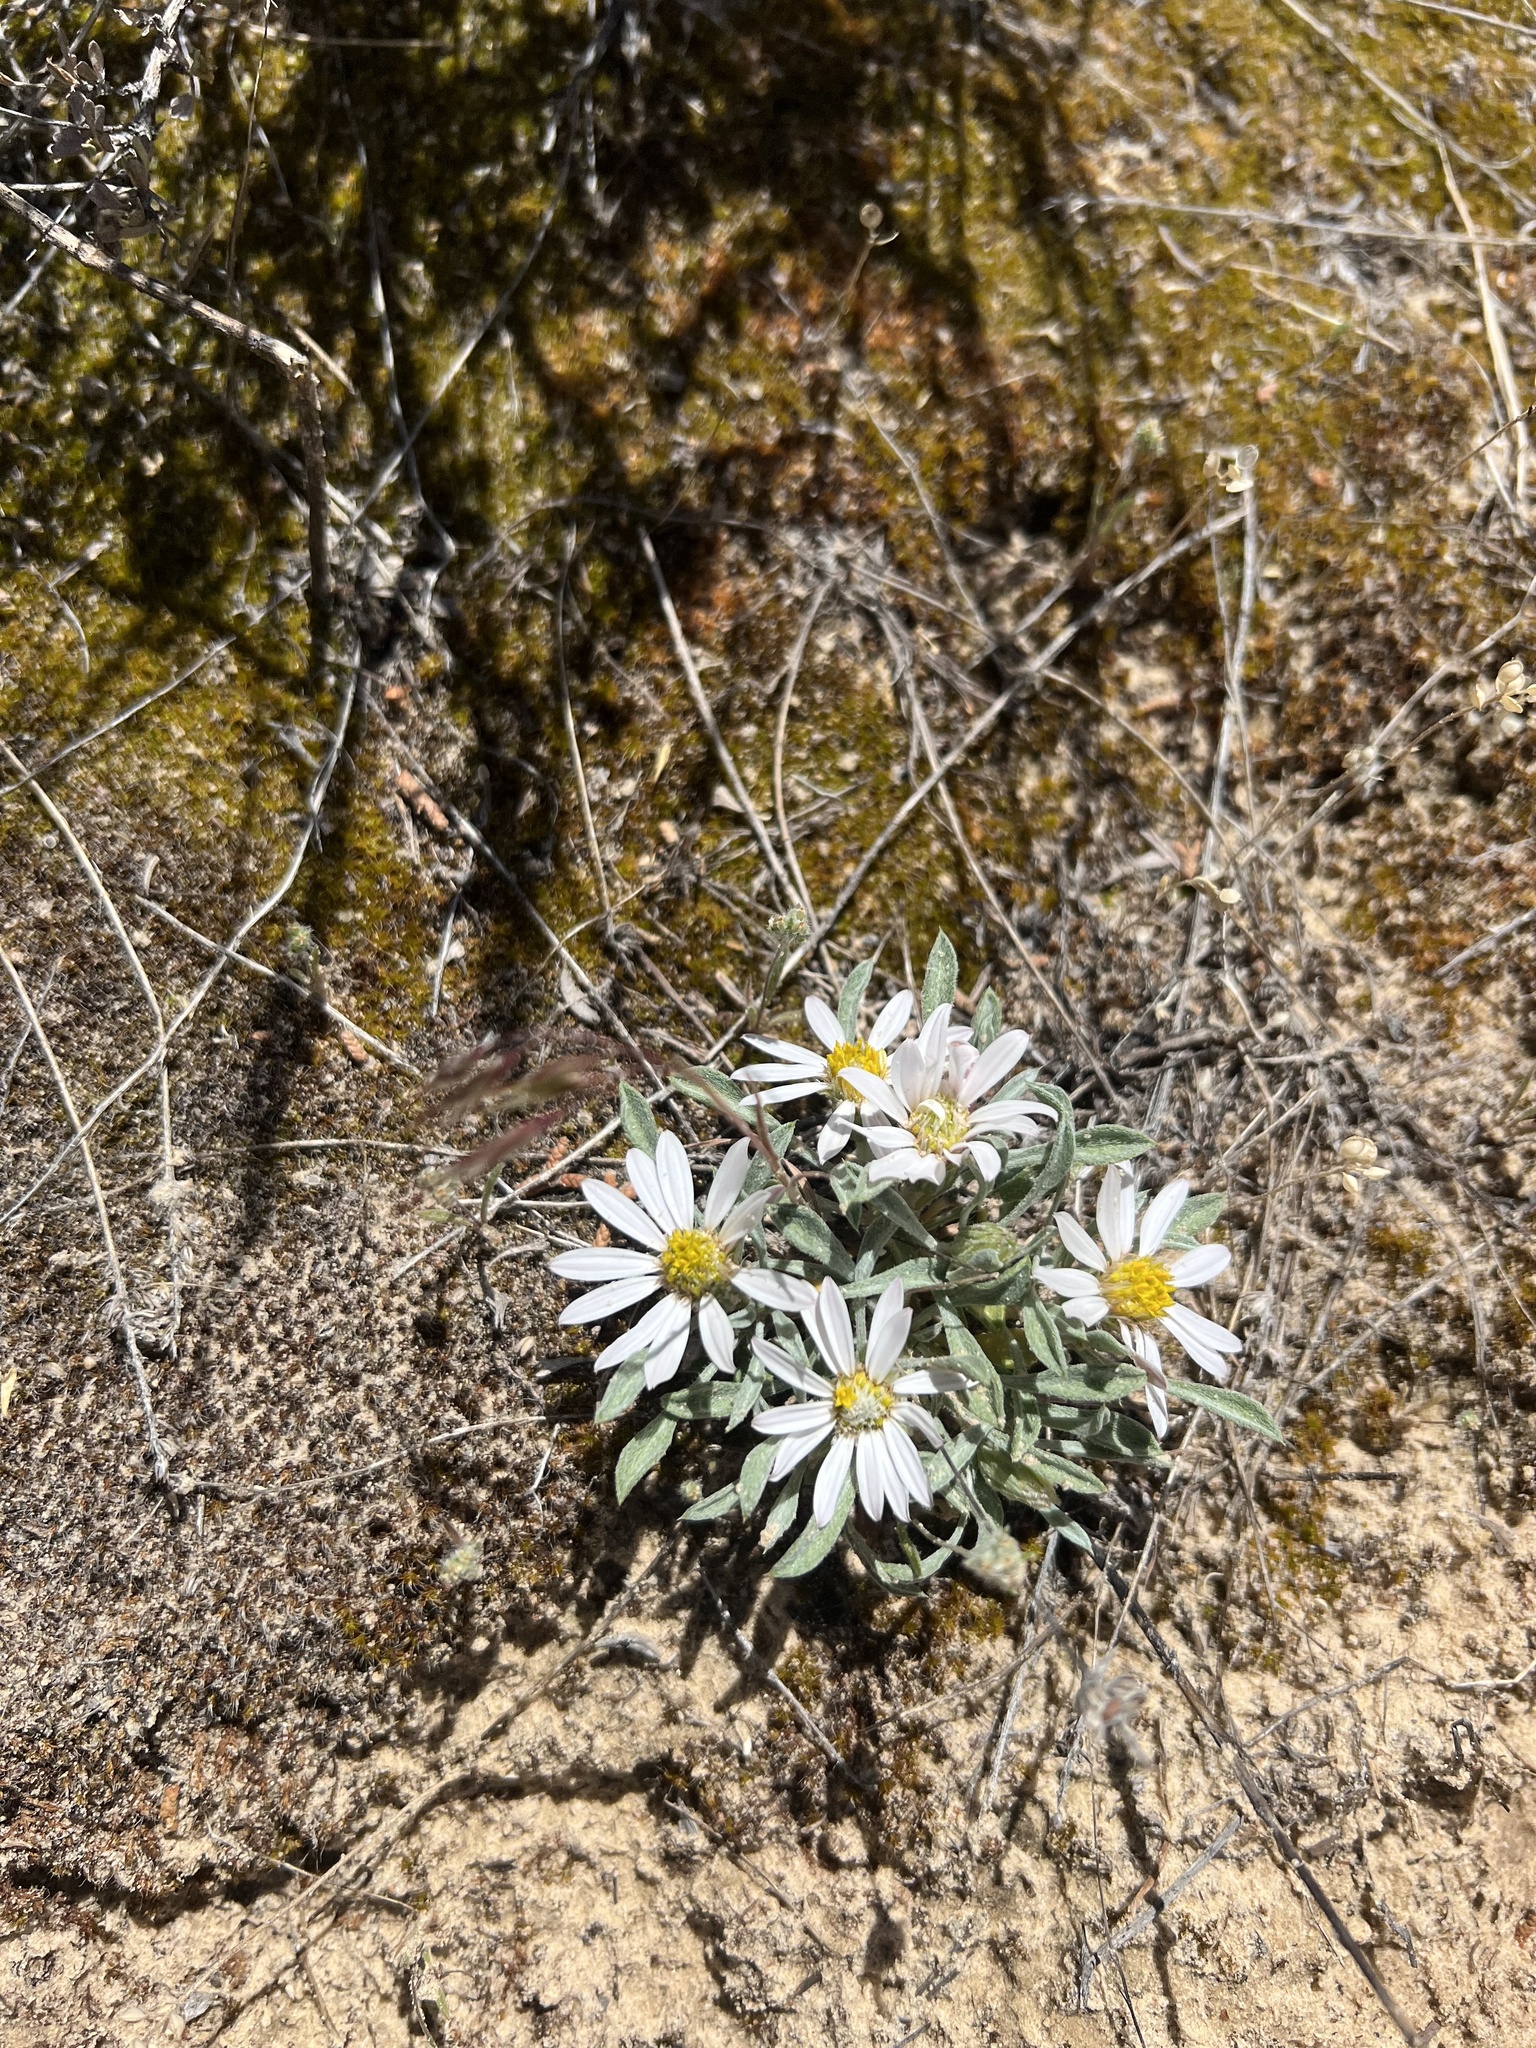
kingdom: Plantae
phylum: Tracheophyta
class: Magnoliopsida
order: Asterales
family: Asteraceae
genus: Townsendia
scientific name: Townsendia incana
